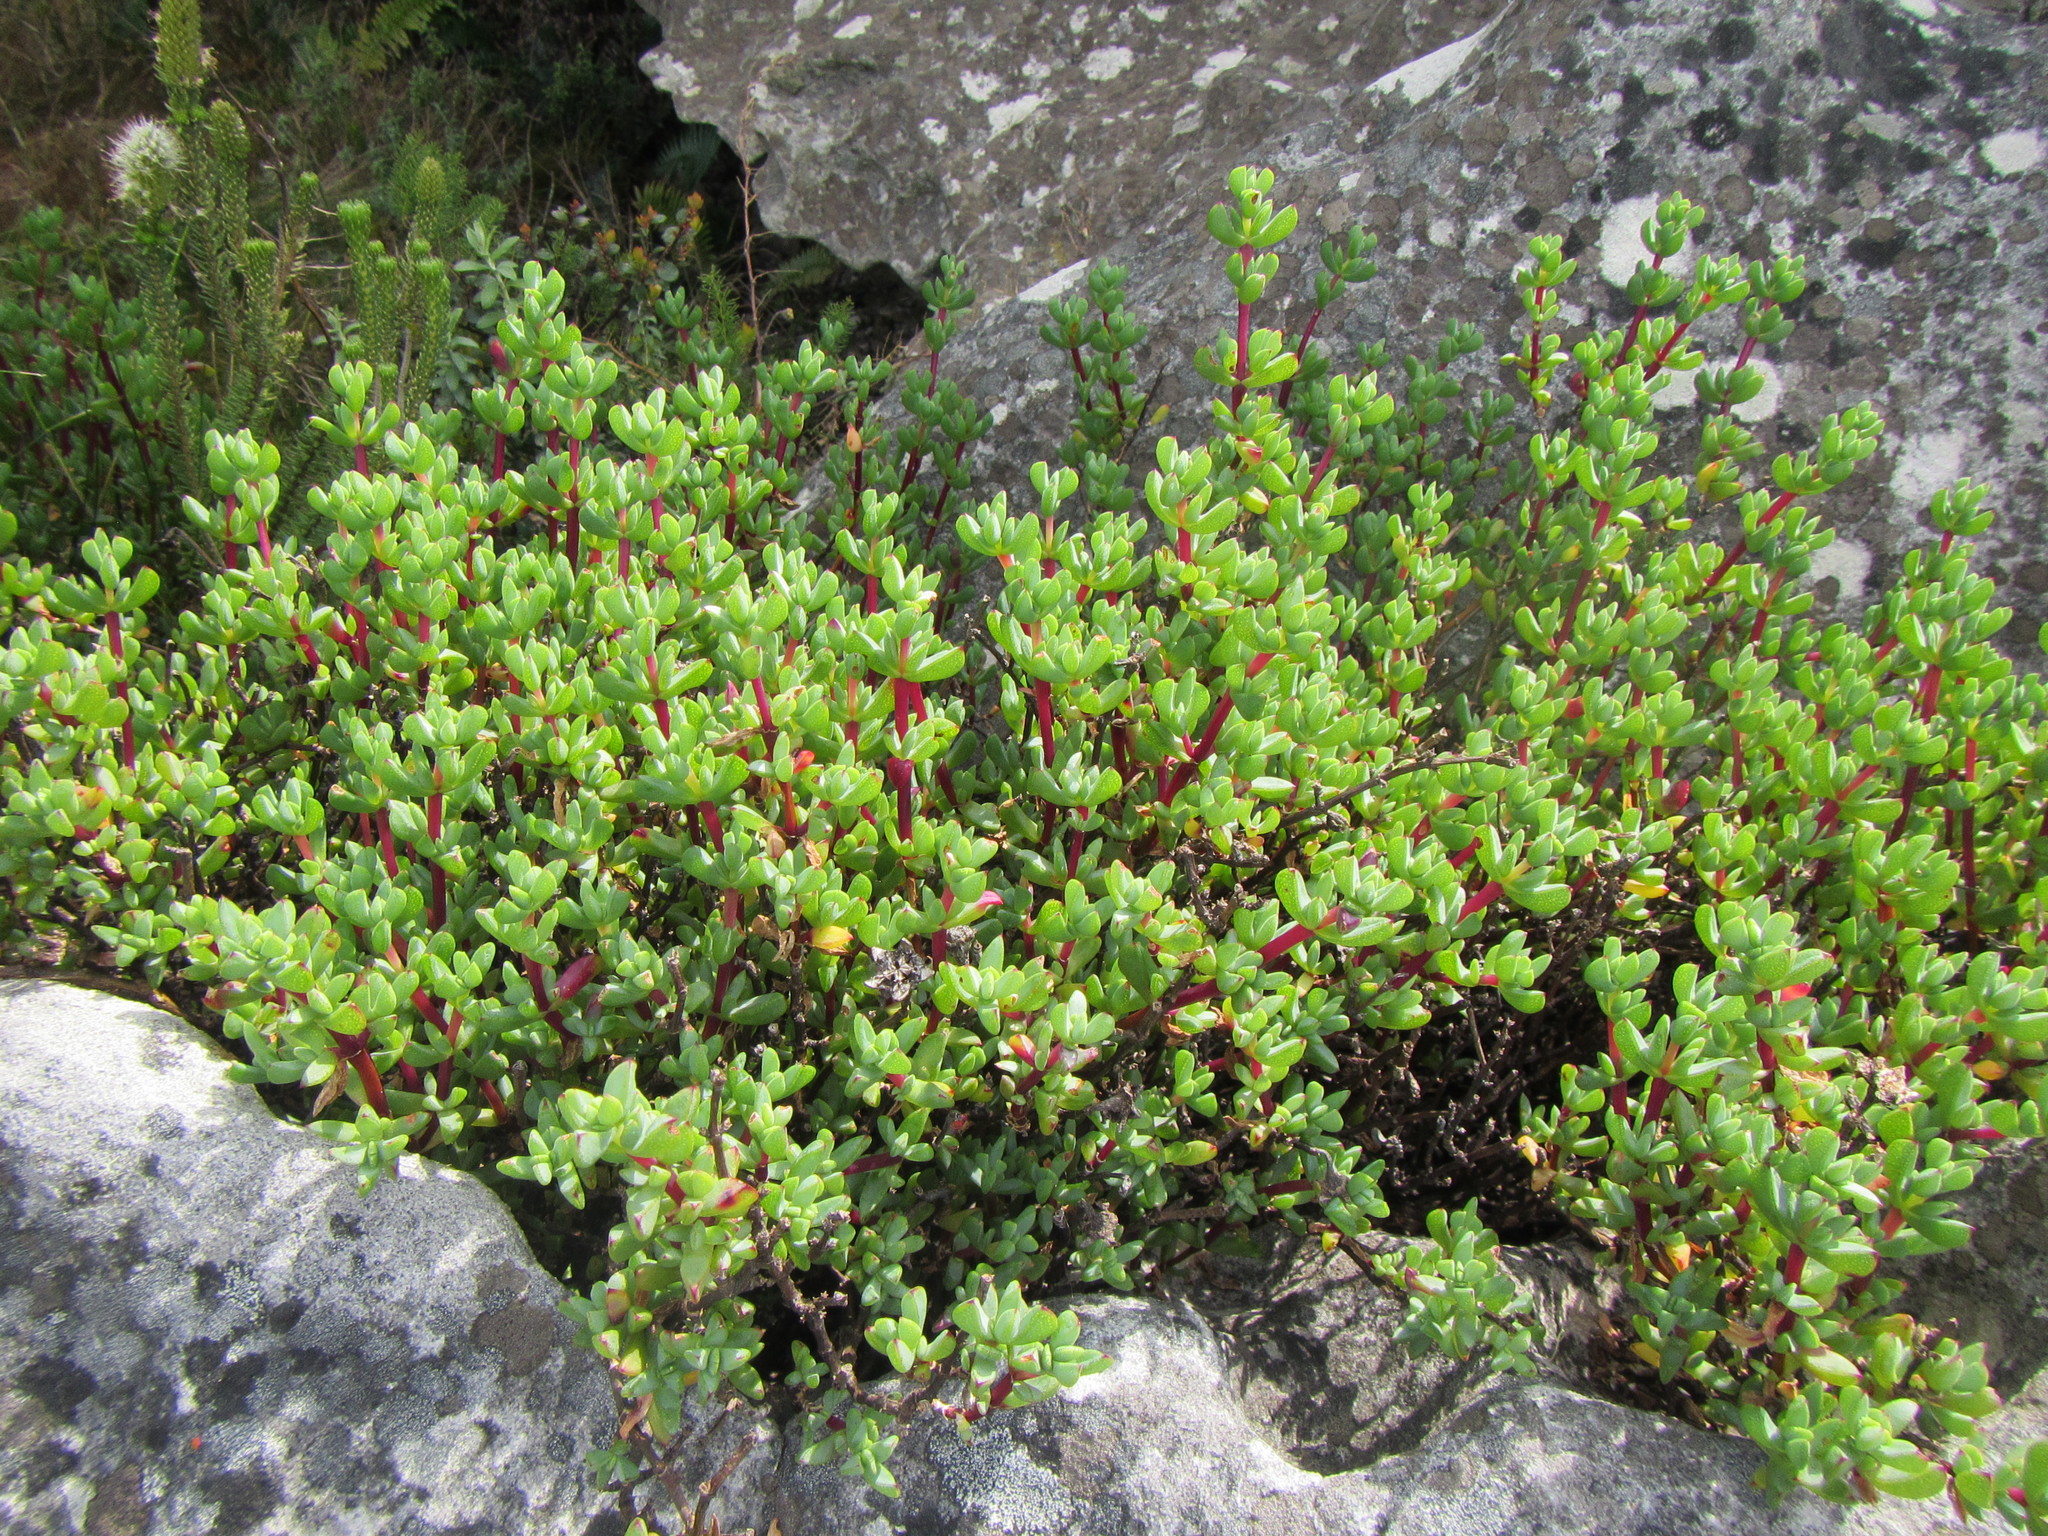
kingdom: Plantae
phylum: Tracheophyta
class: Magnoliopsida
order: Caryophyllales
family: Aizoaceae
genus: Oscularia
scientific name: Oscularia falciformis
